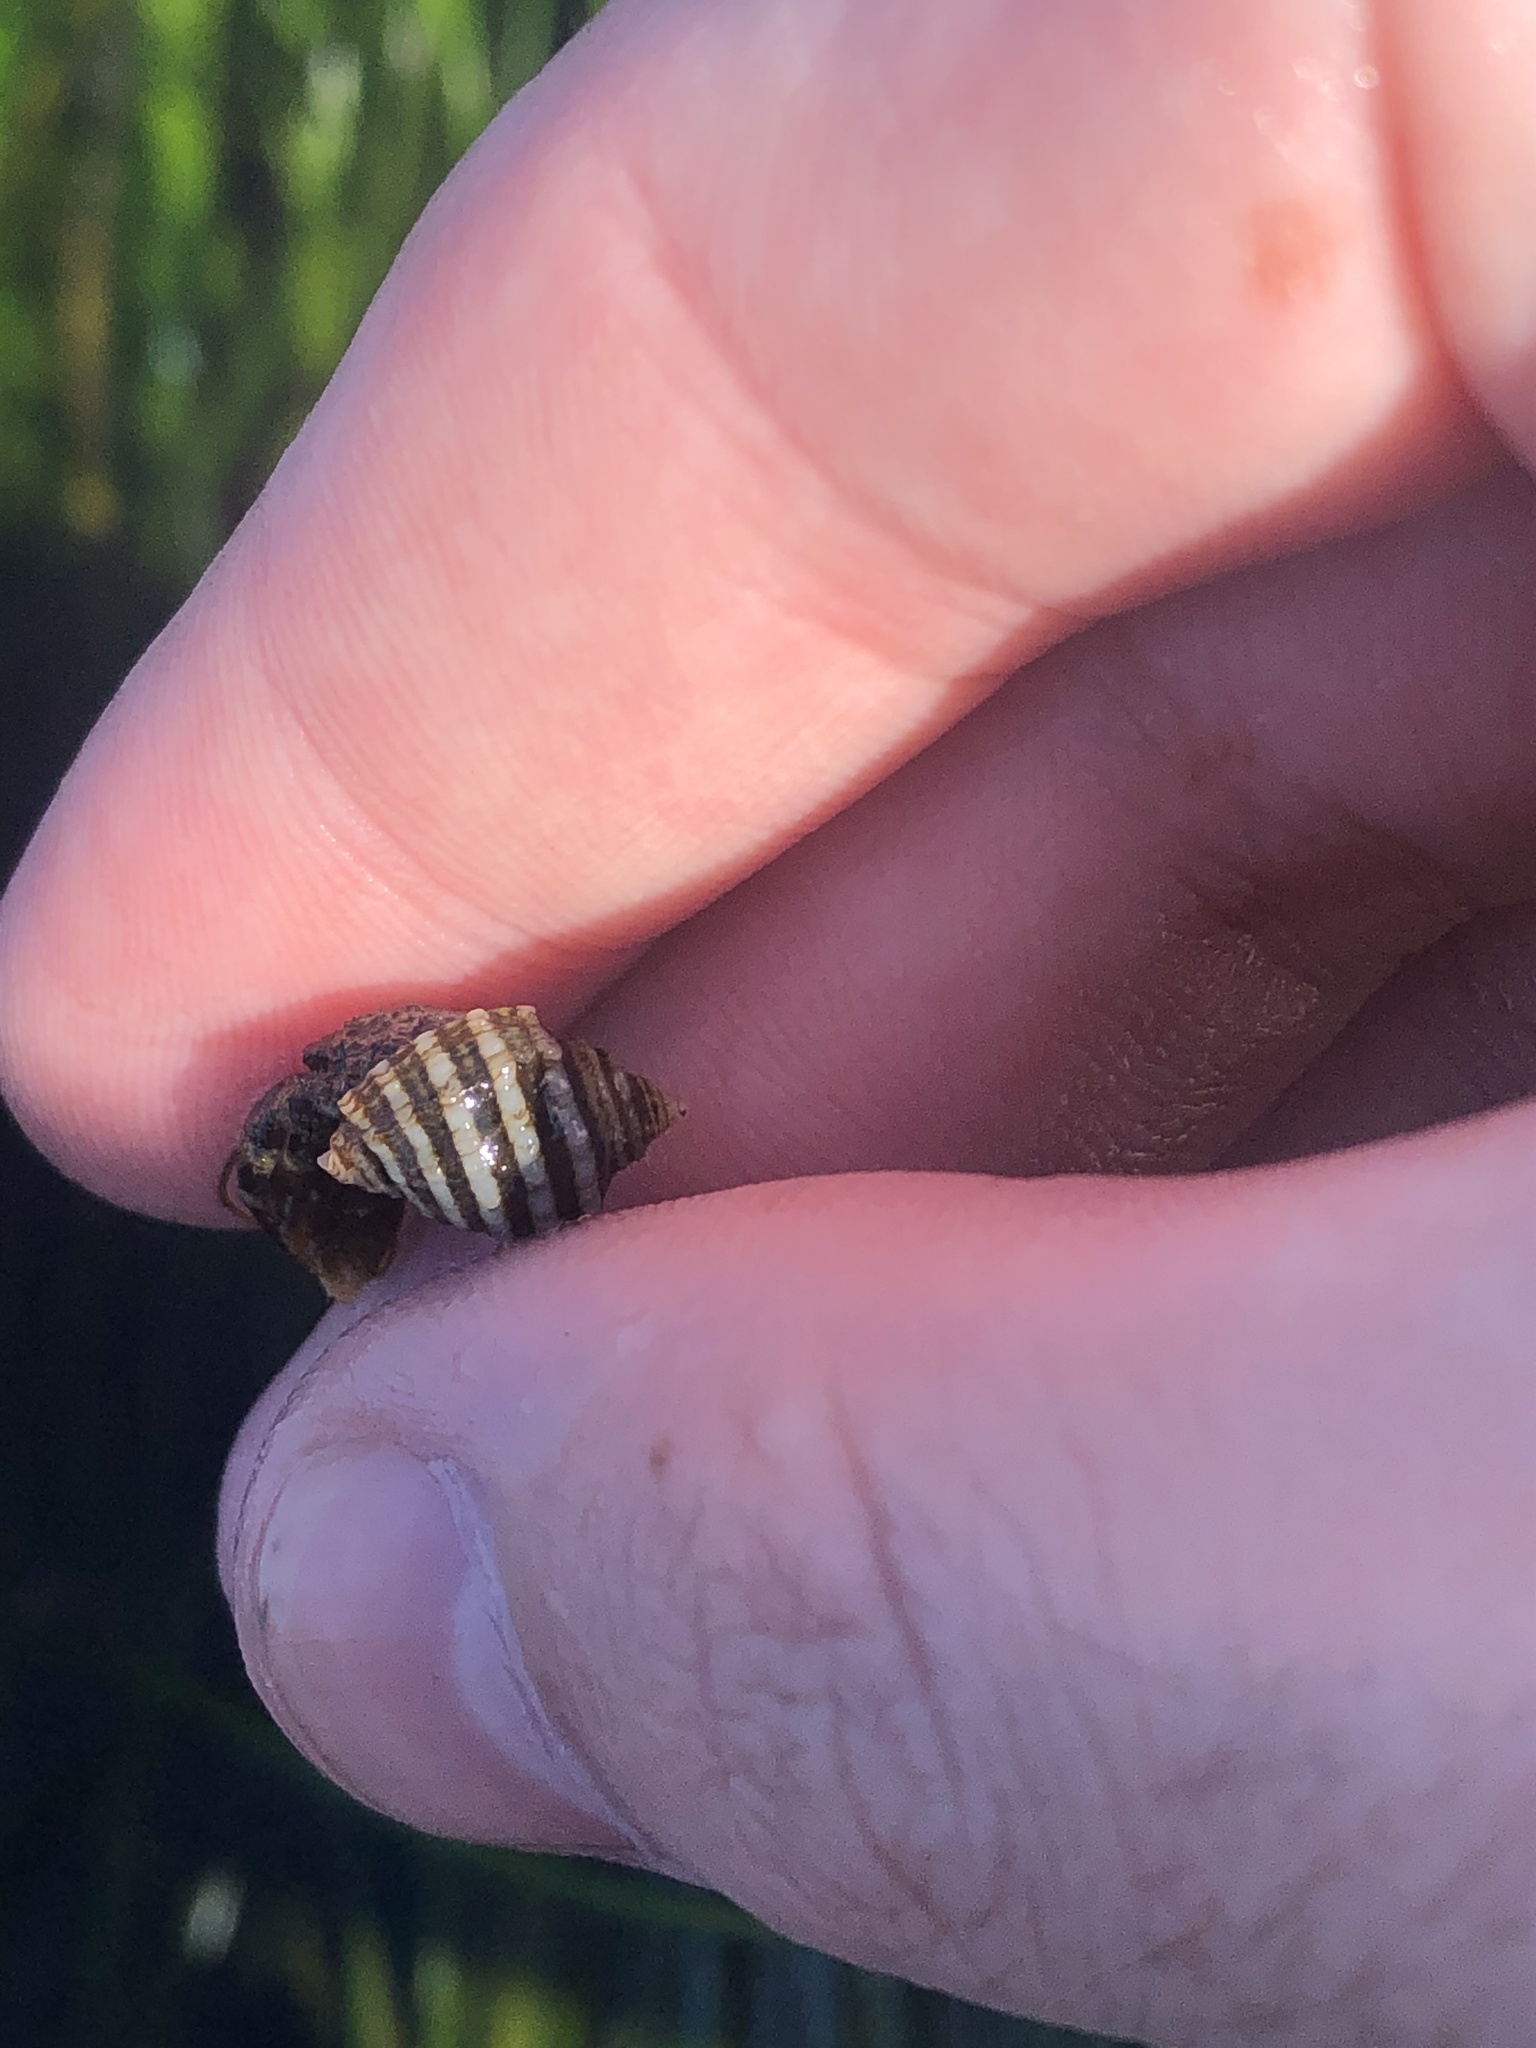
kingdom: Animalia
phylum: Mollusca
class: Gastropoda
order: Neogastropoda
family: Muricidae
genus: Nucella
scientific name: Nucella ostrina
